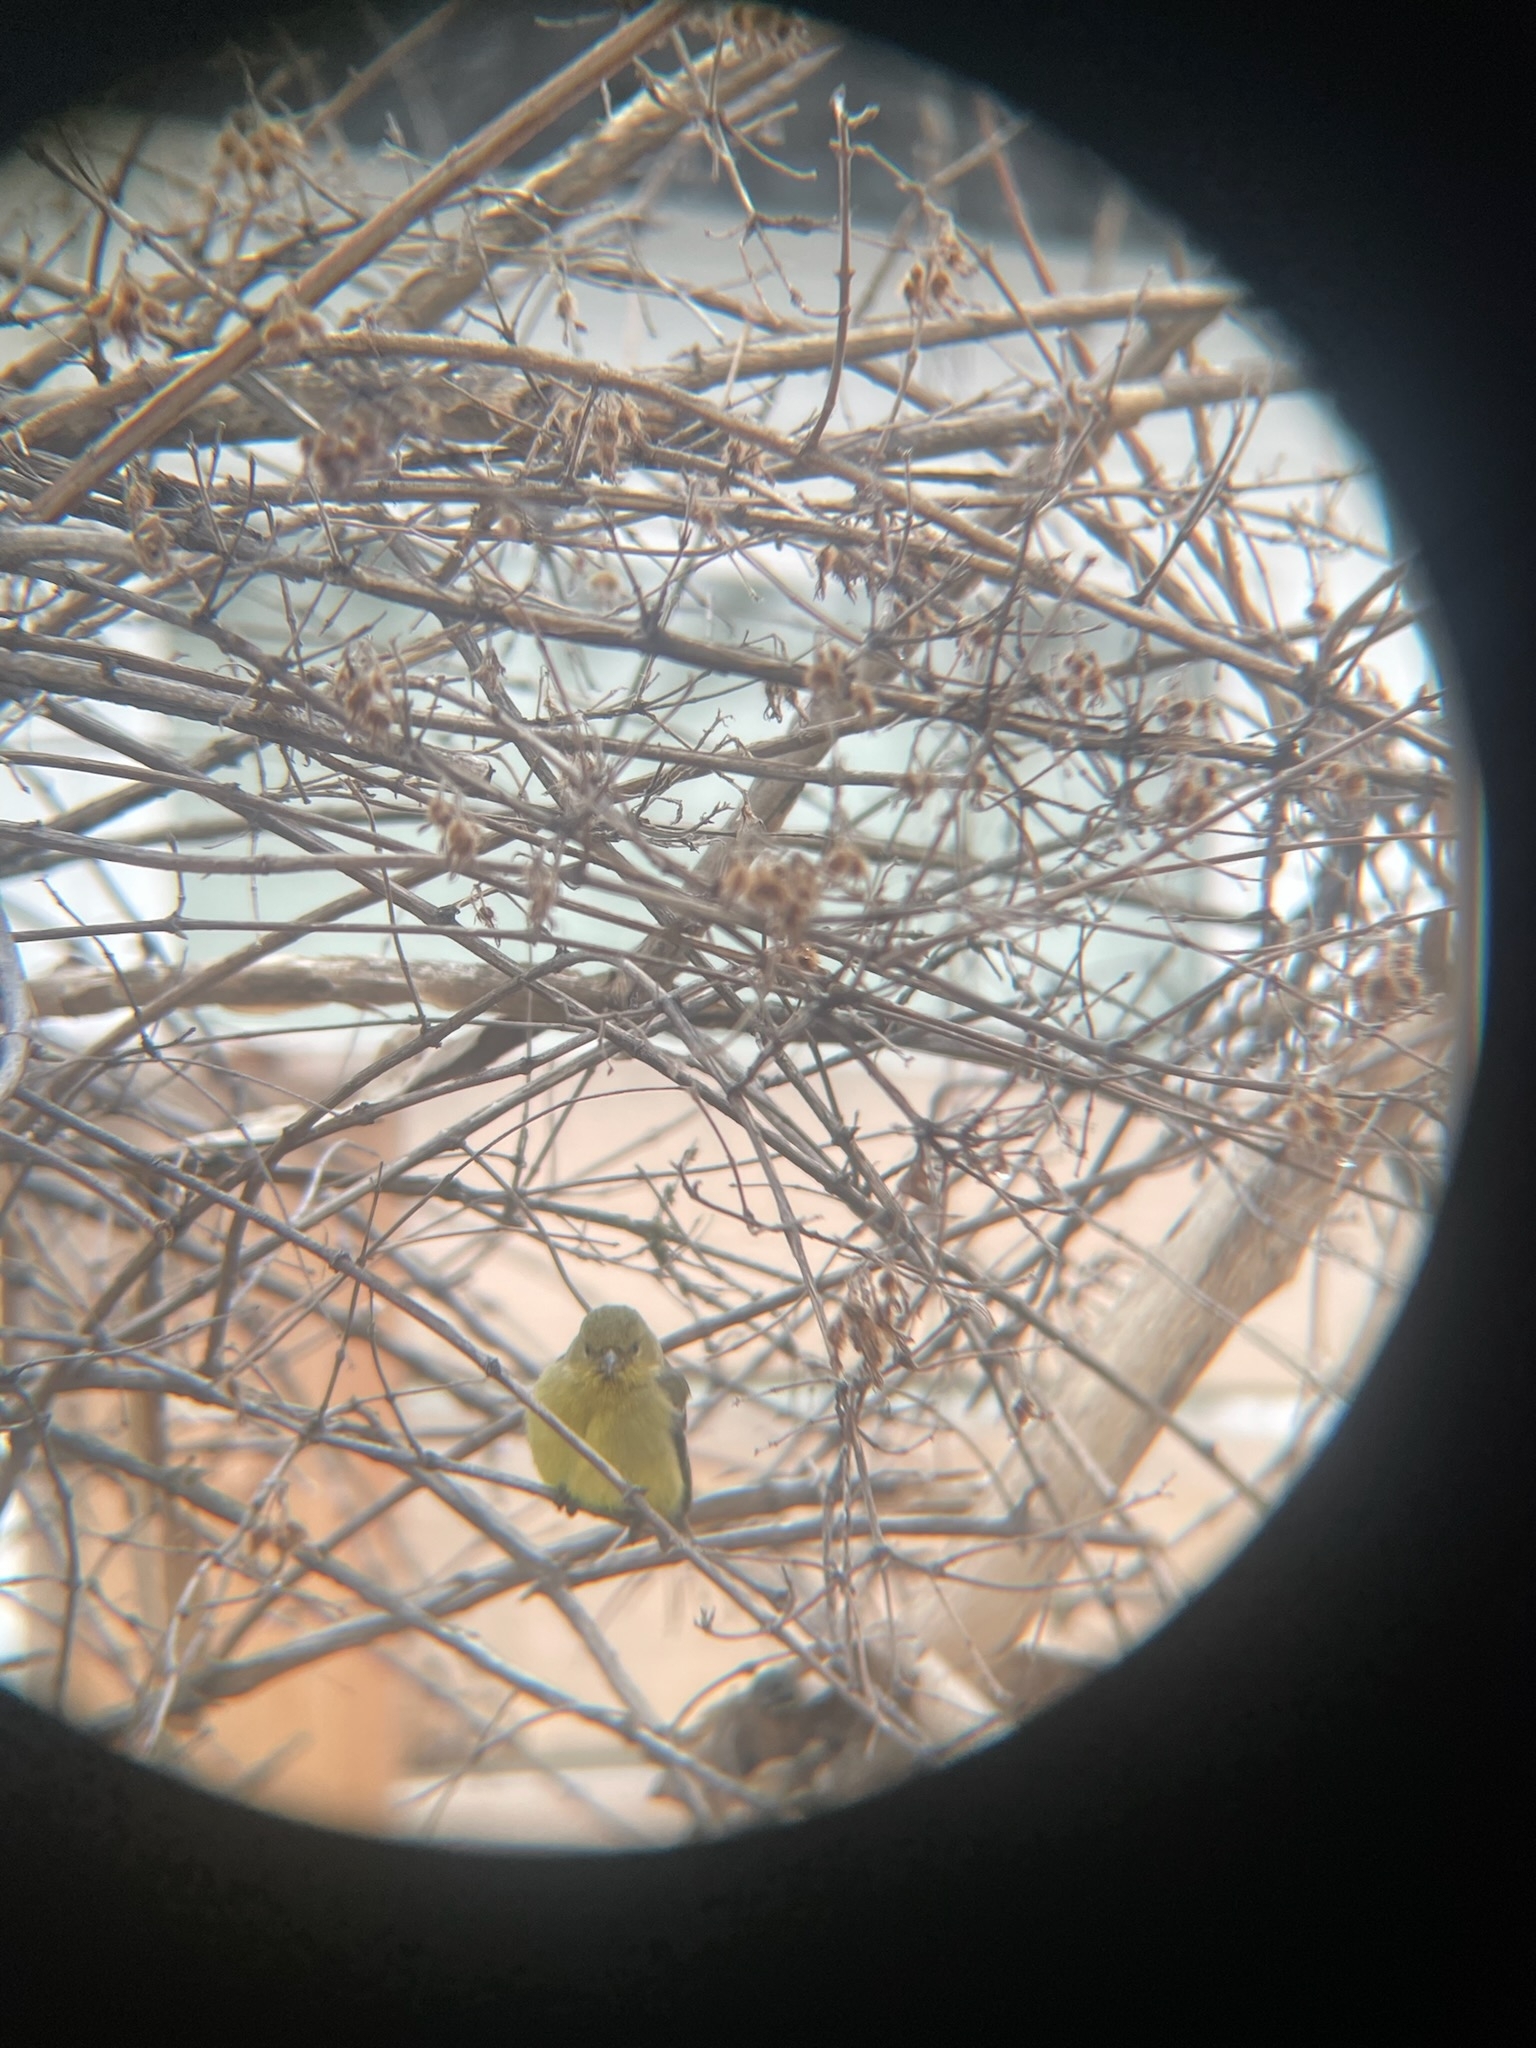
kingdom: Animalia
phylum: Chordata
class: Aves
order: Passeriformes
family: Fringillidae
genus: Spinus
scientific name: Spinus tristis
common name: American goldfinch
